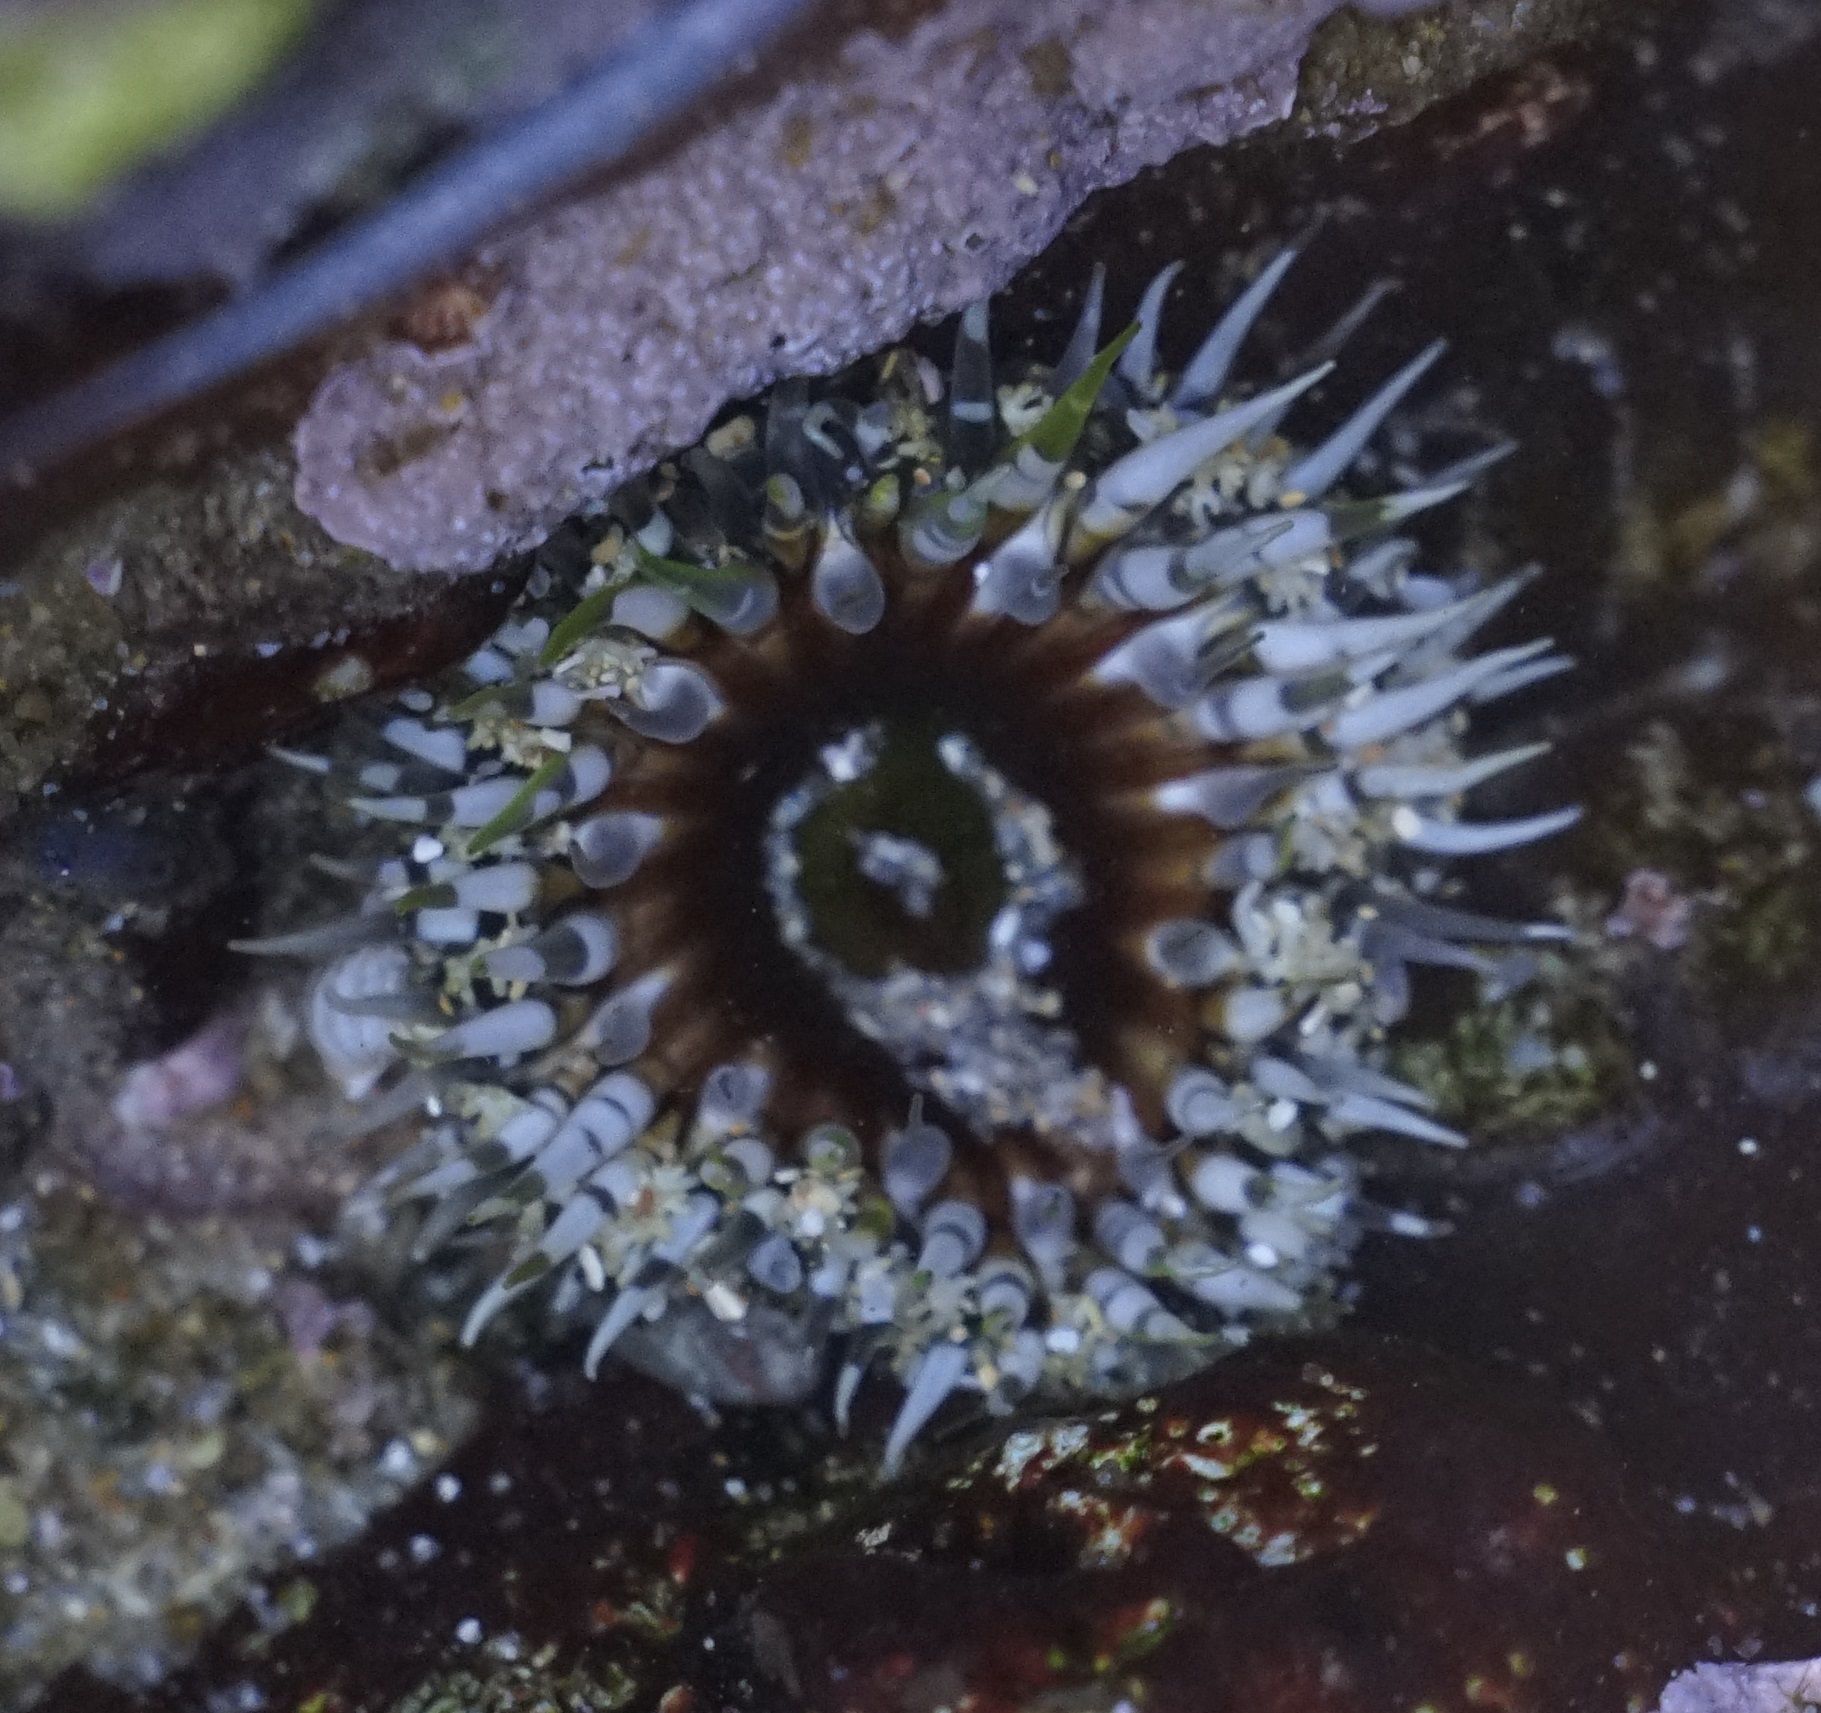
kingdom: Animalia
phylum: Cnidaria
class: Anthozoa
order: Actiniaria
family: Actiniidae
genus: Oulactis
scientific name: Oulactis muscosa
